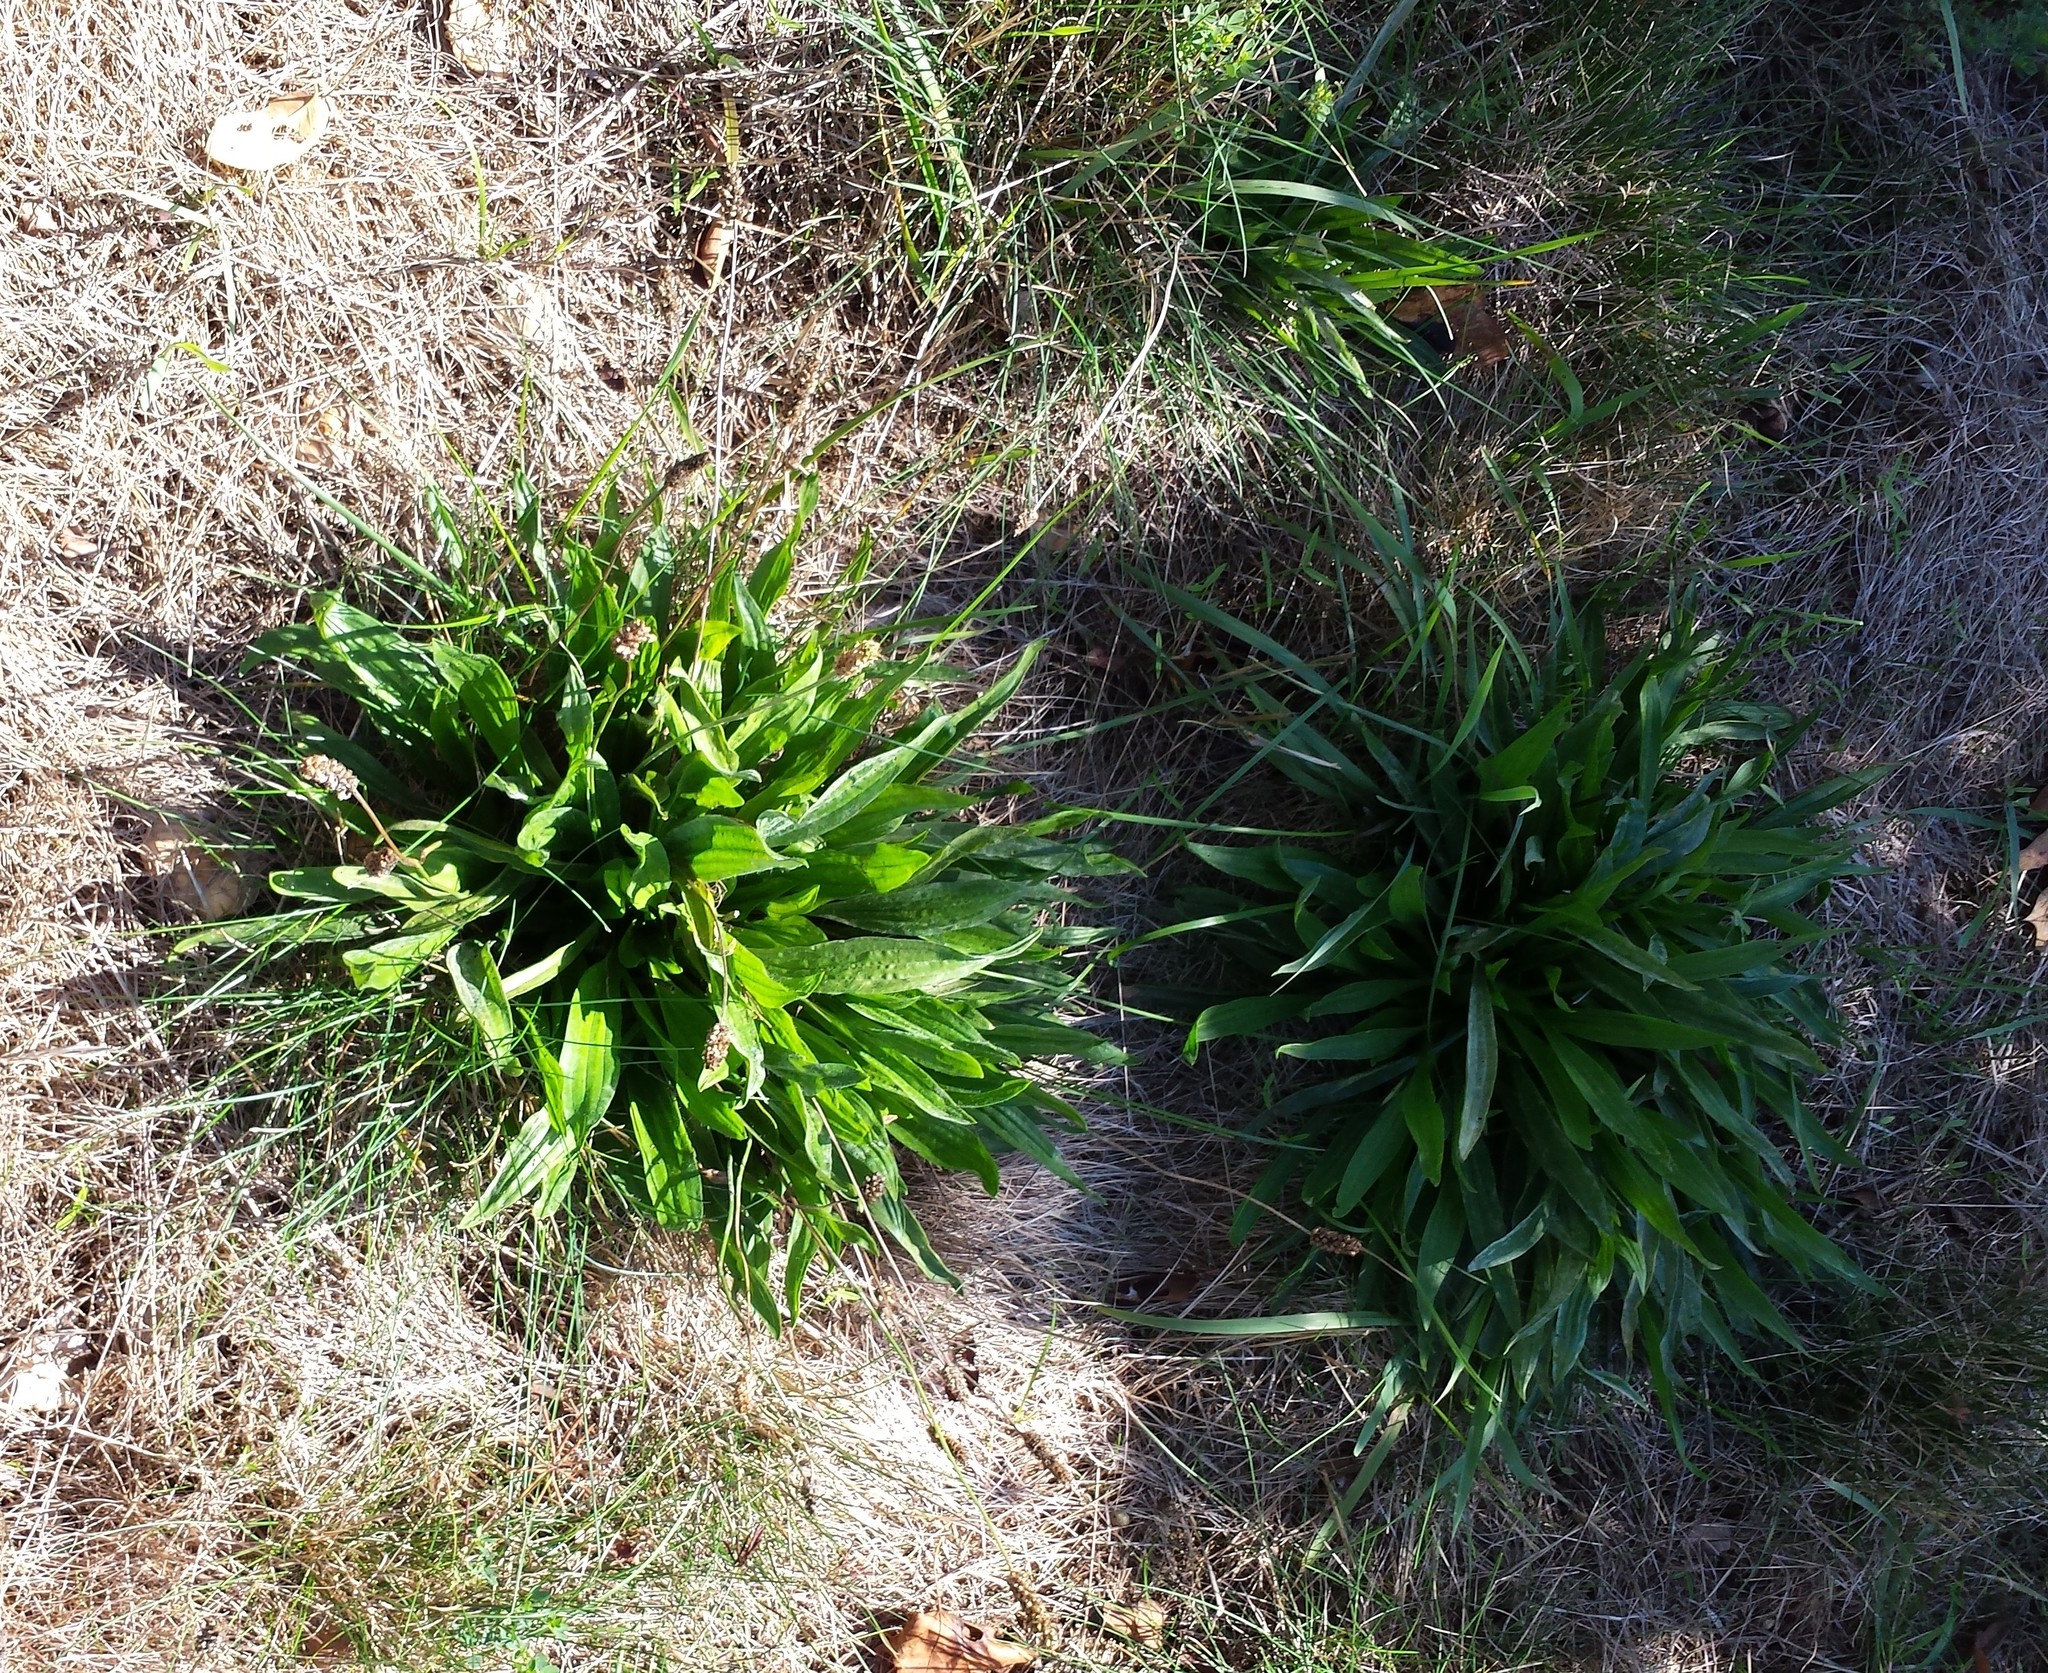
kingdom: Plantae
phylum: Tracheophyta
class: Magnoliopsida
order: Lamiales
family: Plantaginaceae
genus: Plantago
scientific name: Plantago lanceolata
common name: Ribwort plantain
